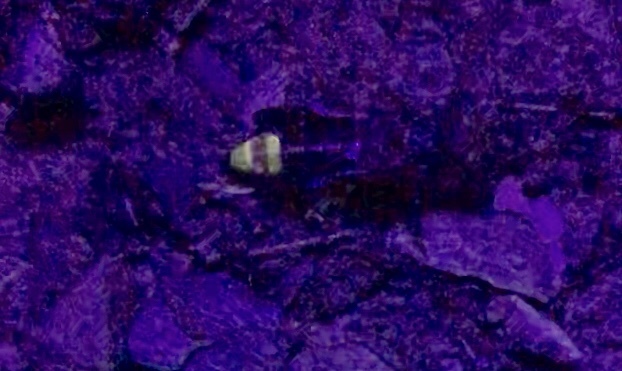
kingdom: Animalia
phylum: Arthropoda
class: Insecta
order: Coleoptera
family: Staphylinidae
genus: Ontholestes
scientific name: Ontholestes cingulatus
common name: Gold-and-brown rove beetle
